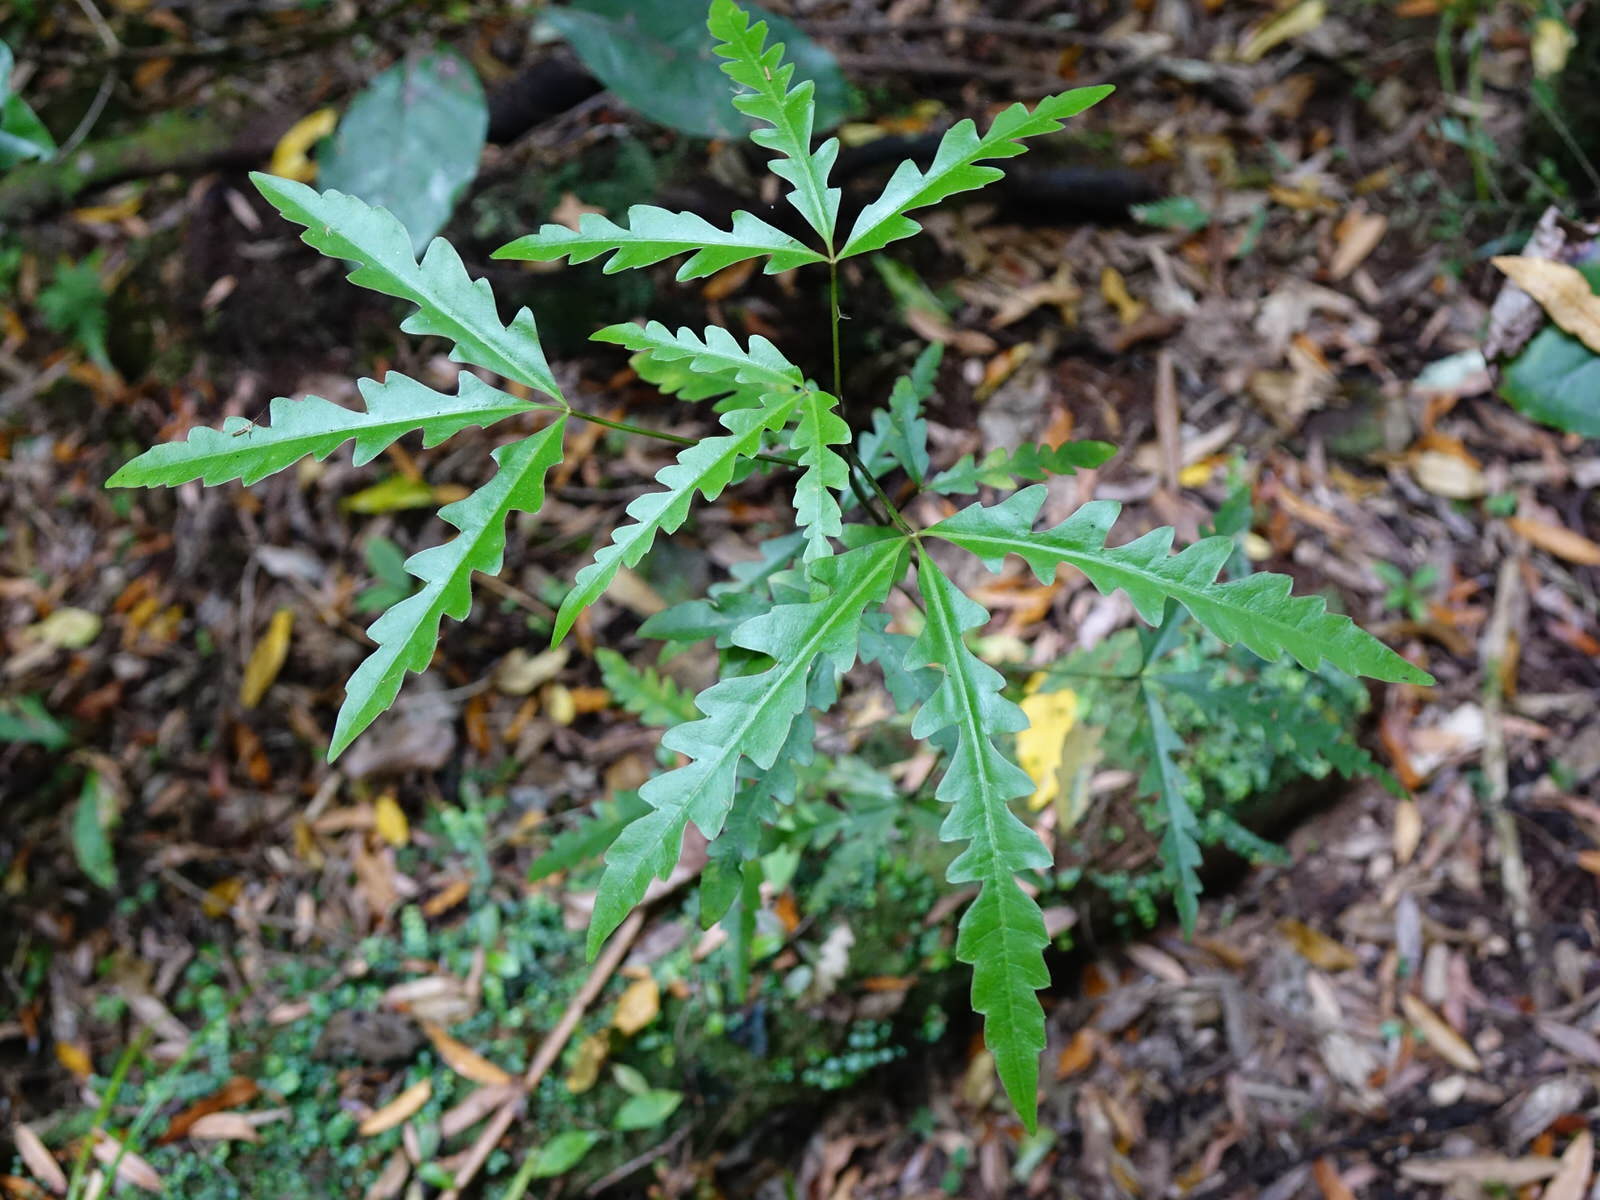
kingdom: Plantae
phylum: Tracheophyta
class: Magnoliopsida
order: Apiales
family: Araliaceae
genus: Raukaua
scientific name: Raukaua edgerleyi
